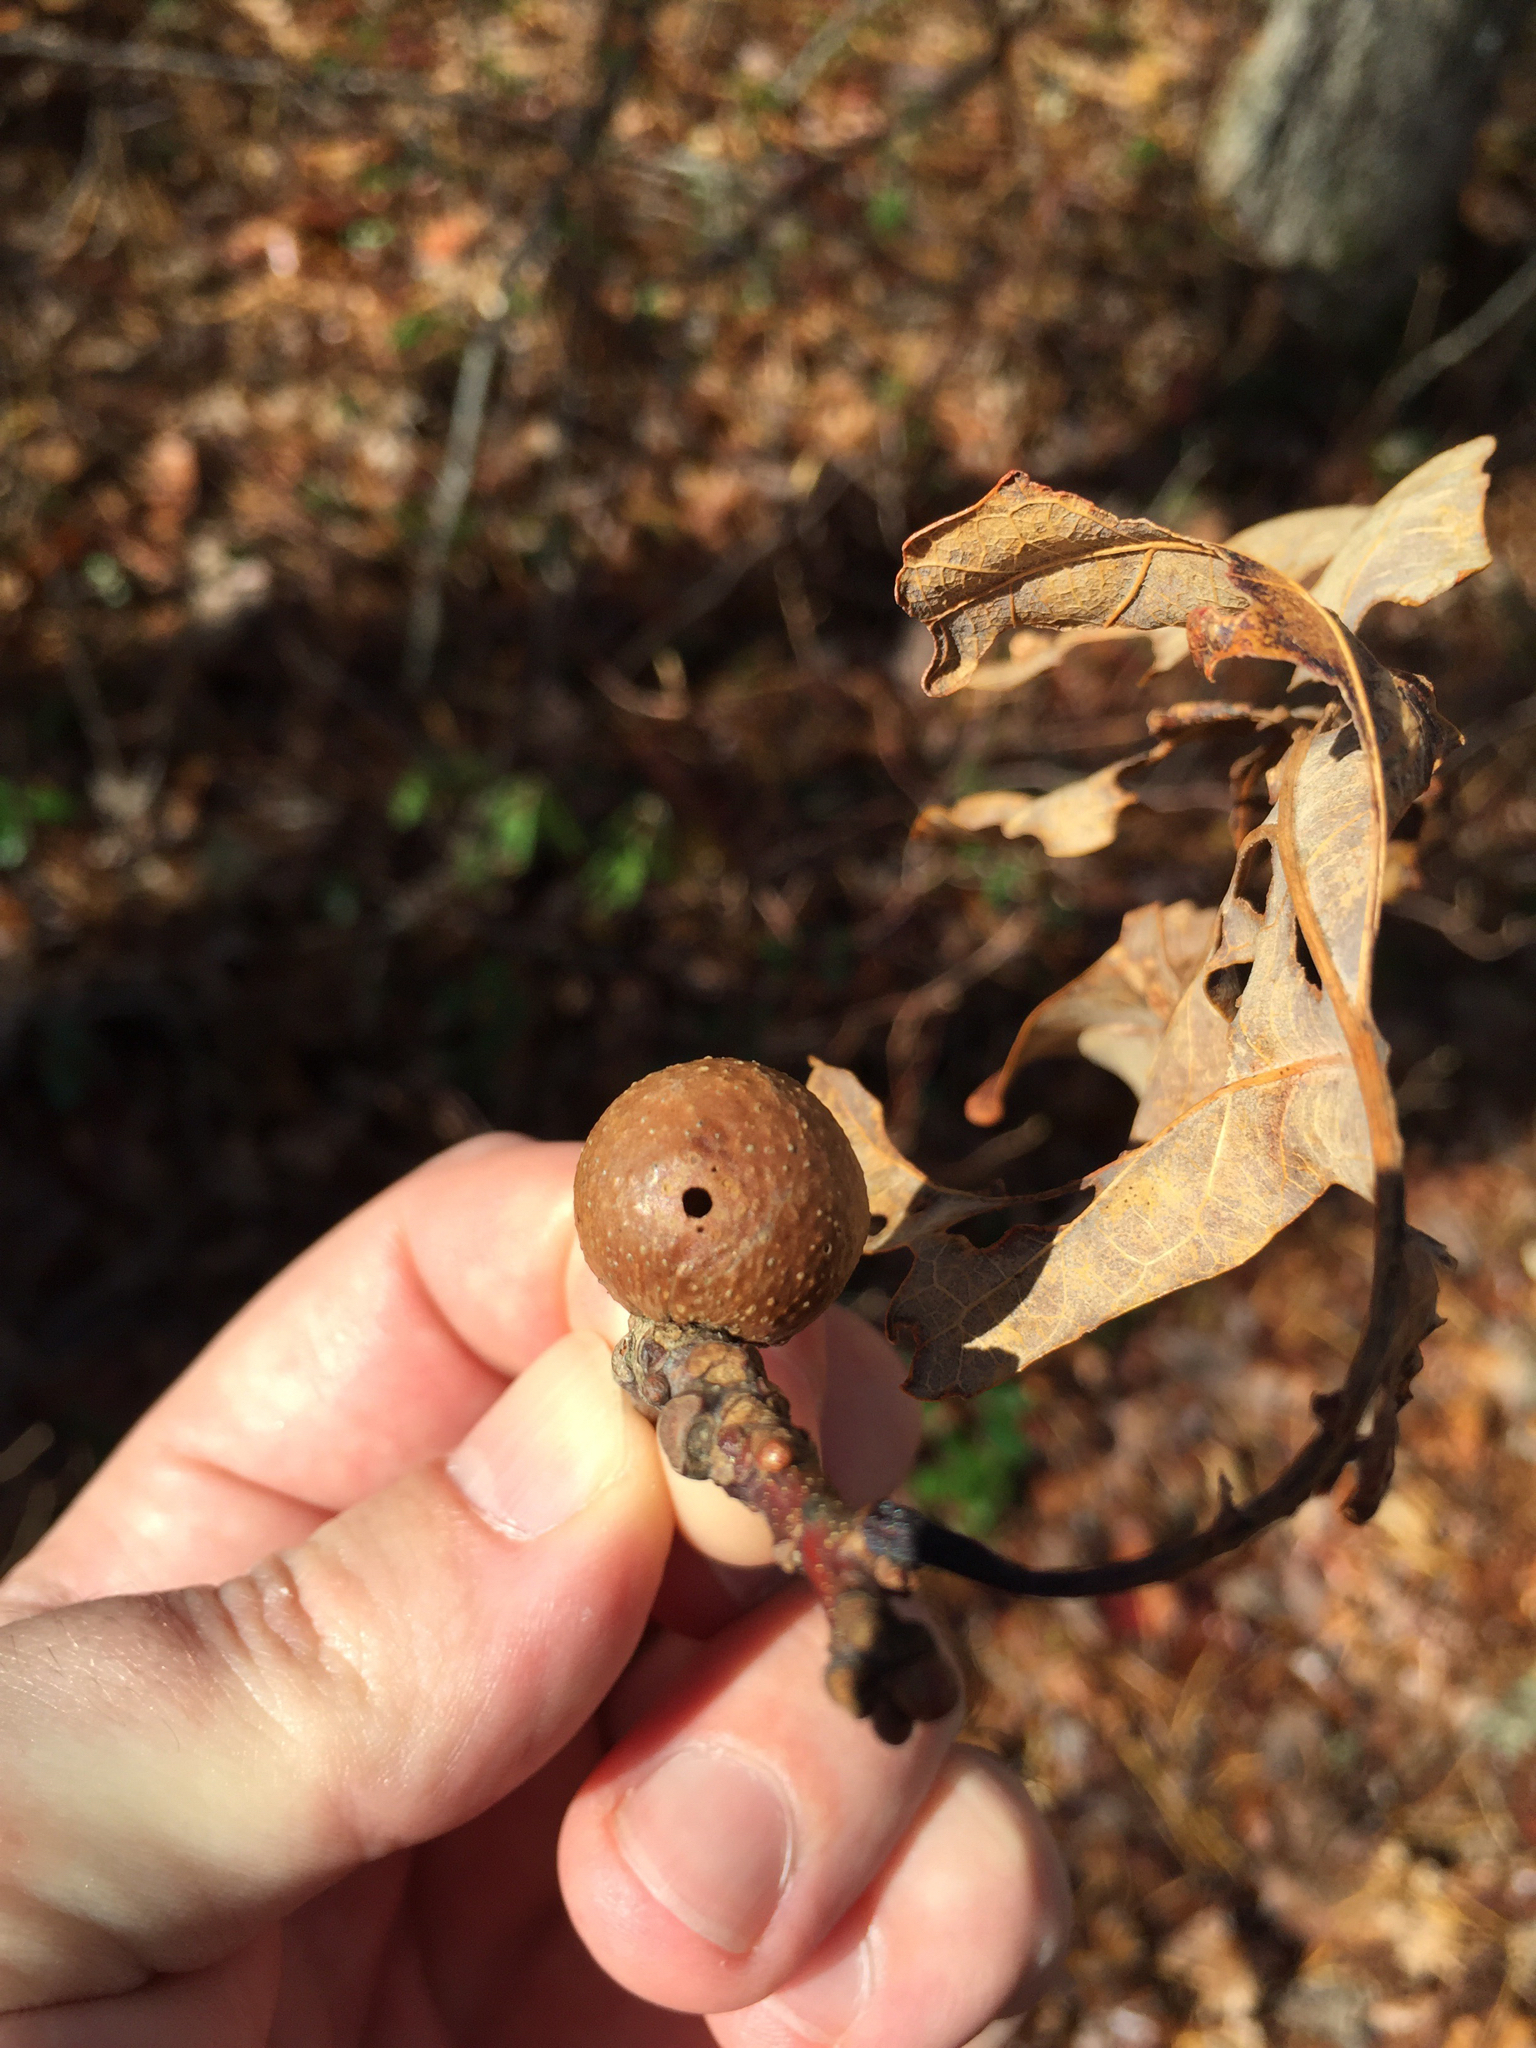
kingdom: Animalia
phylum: Arthropoda
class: Insecta
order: Hymenoptera
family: Cynipidae
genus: Disholcaspis
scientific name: Disholcaspis quercusglobulus
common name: Round bullet gall wasp
